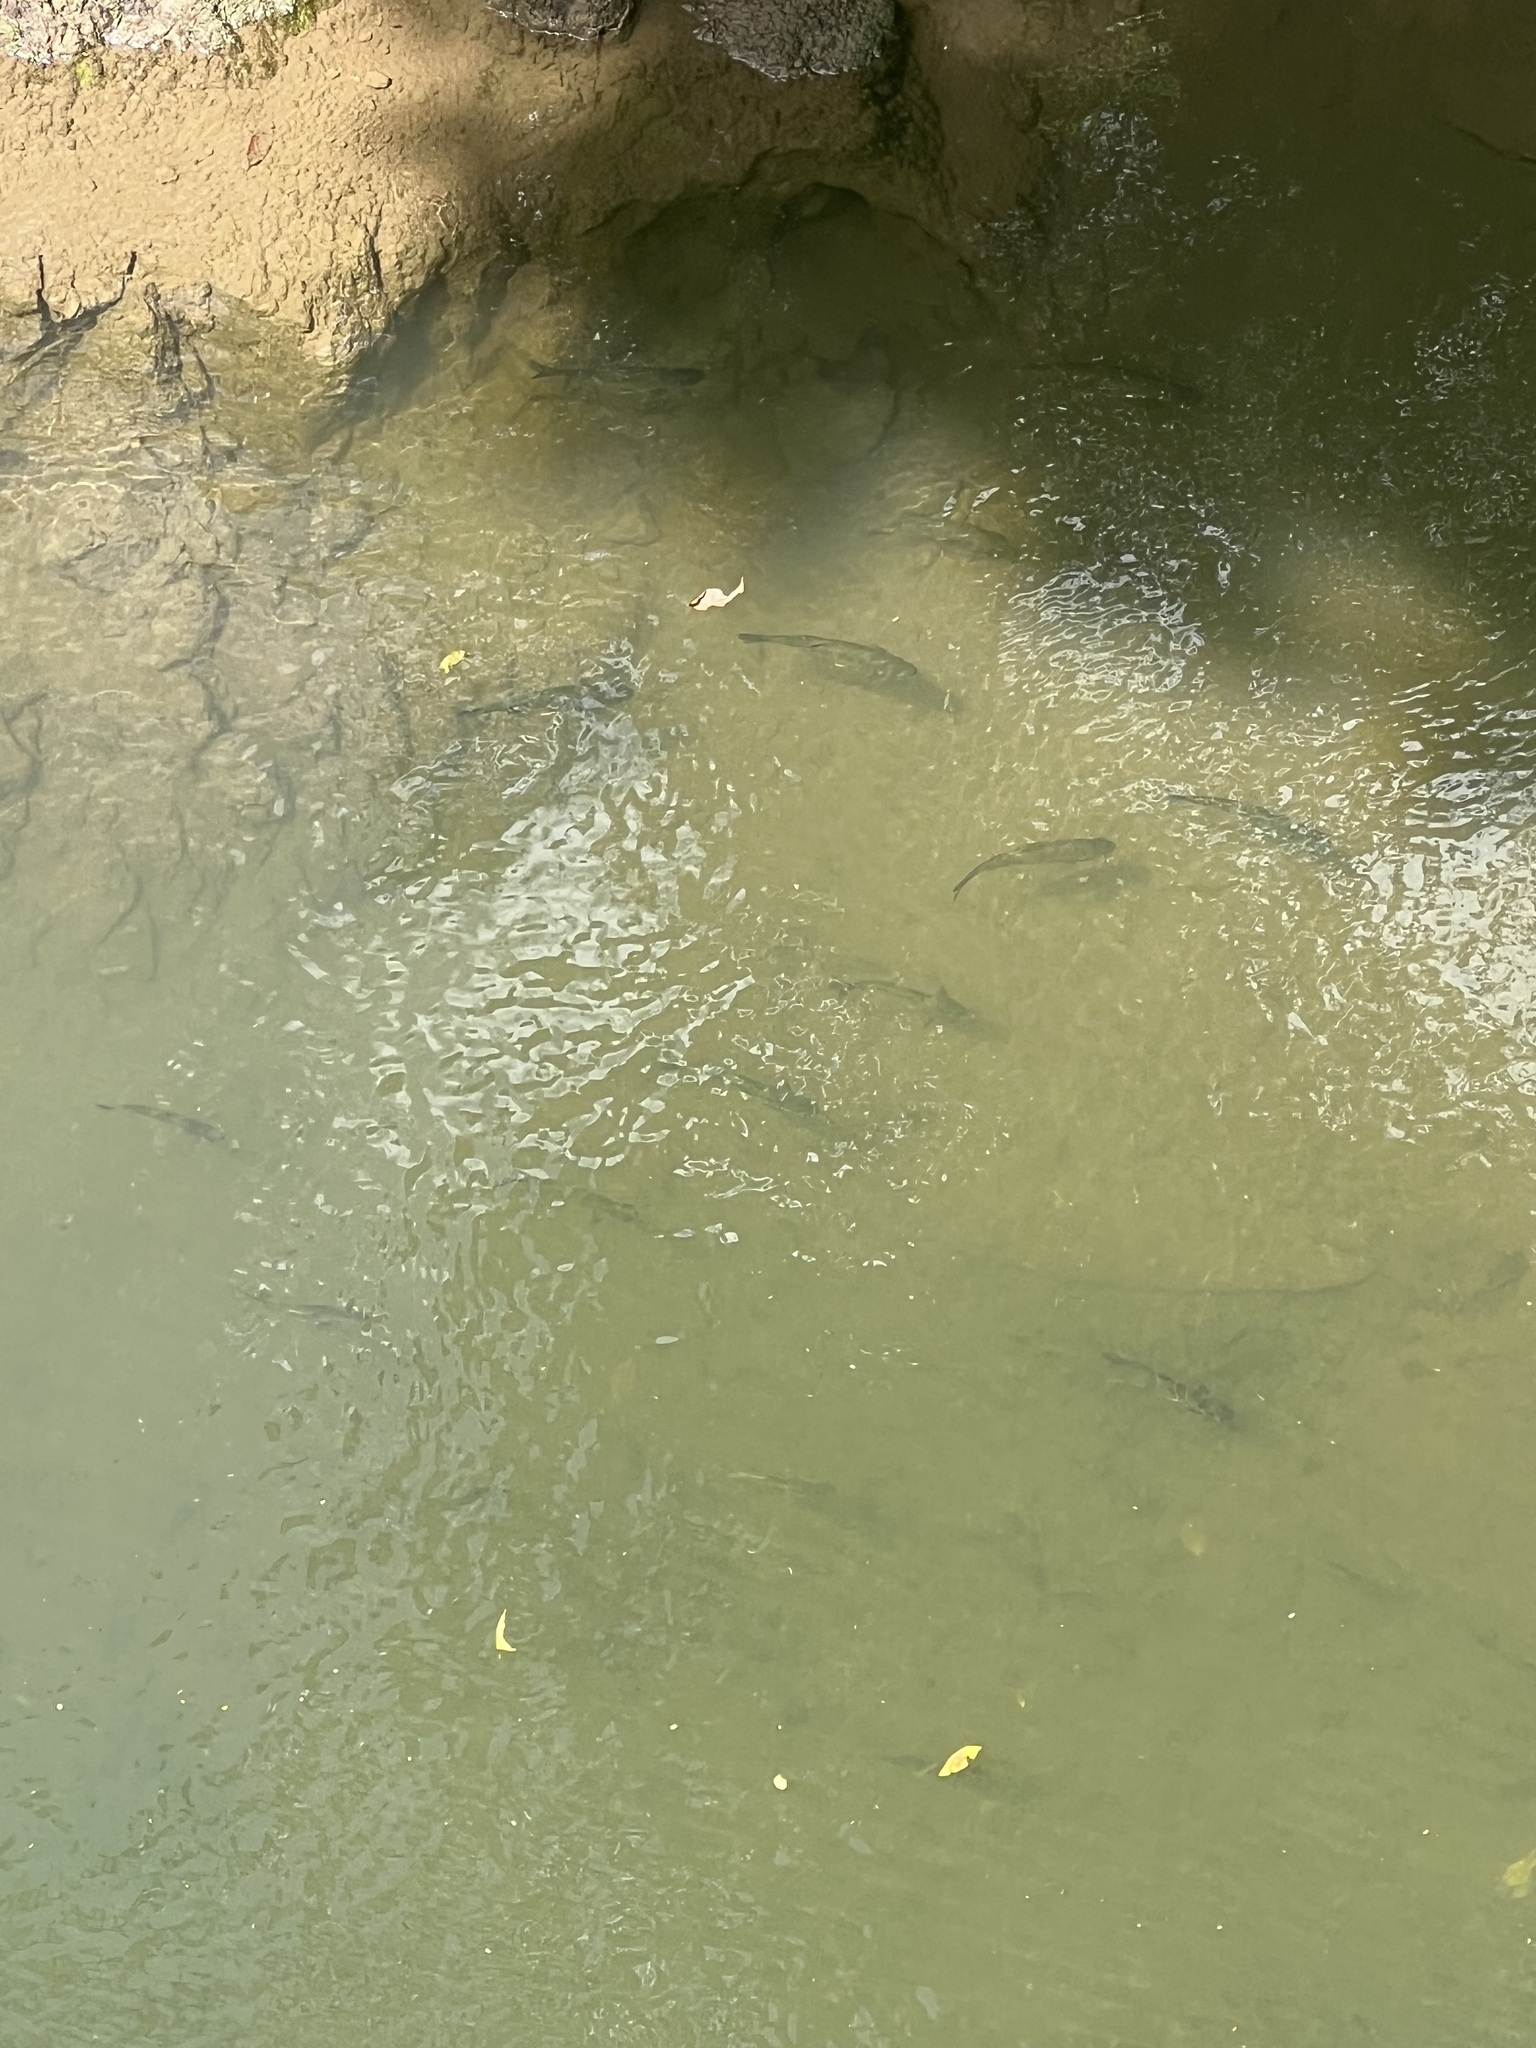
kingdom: Animalia
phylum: Chordata
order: Characiformes
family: Bryconidae
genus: Brycon
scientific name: Brycon costaricensis
